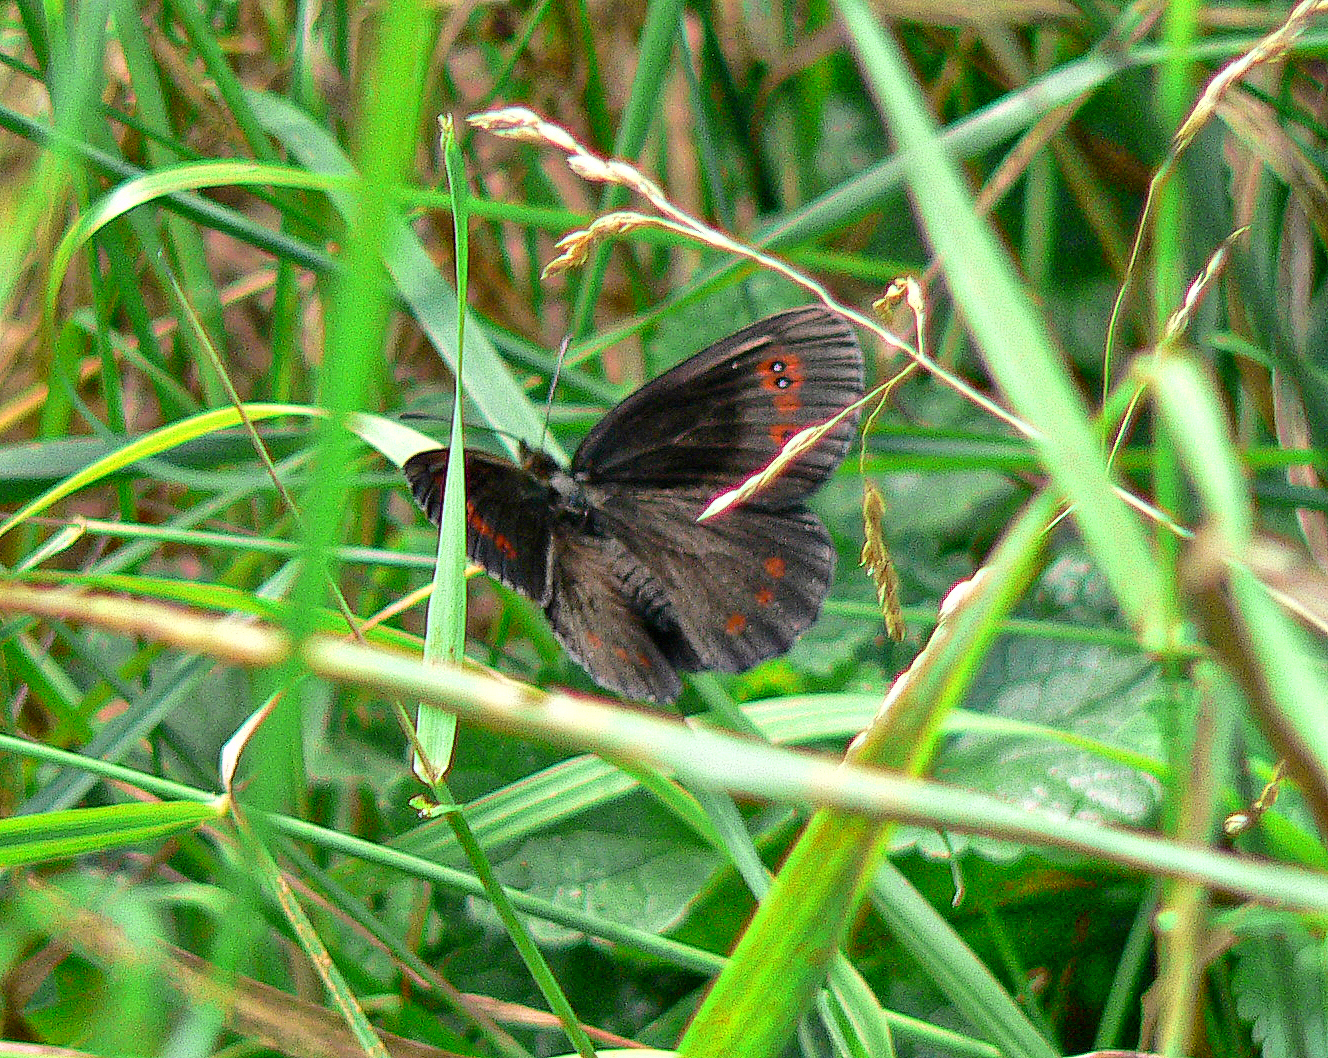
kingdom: Animalia
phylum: Arthropoda
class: Insecta
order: Lepidoptera
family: Nymphalidae
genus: Erebia
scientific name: Erebia aethiops
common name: Scotch argus
